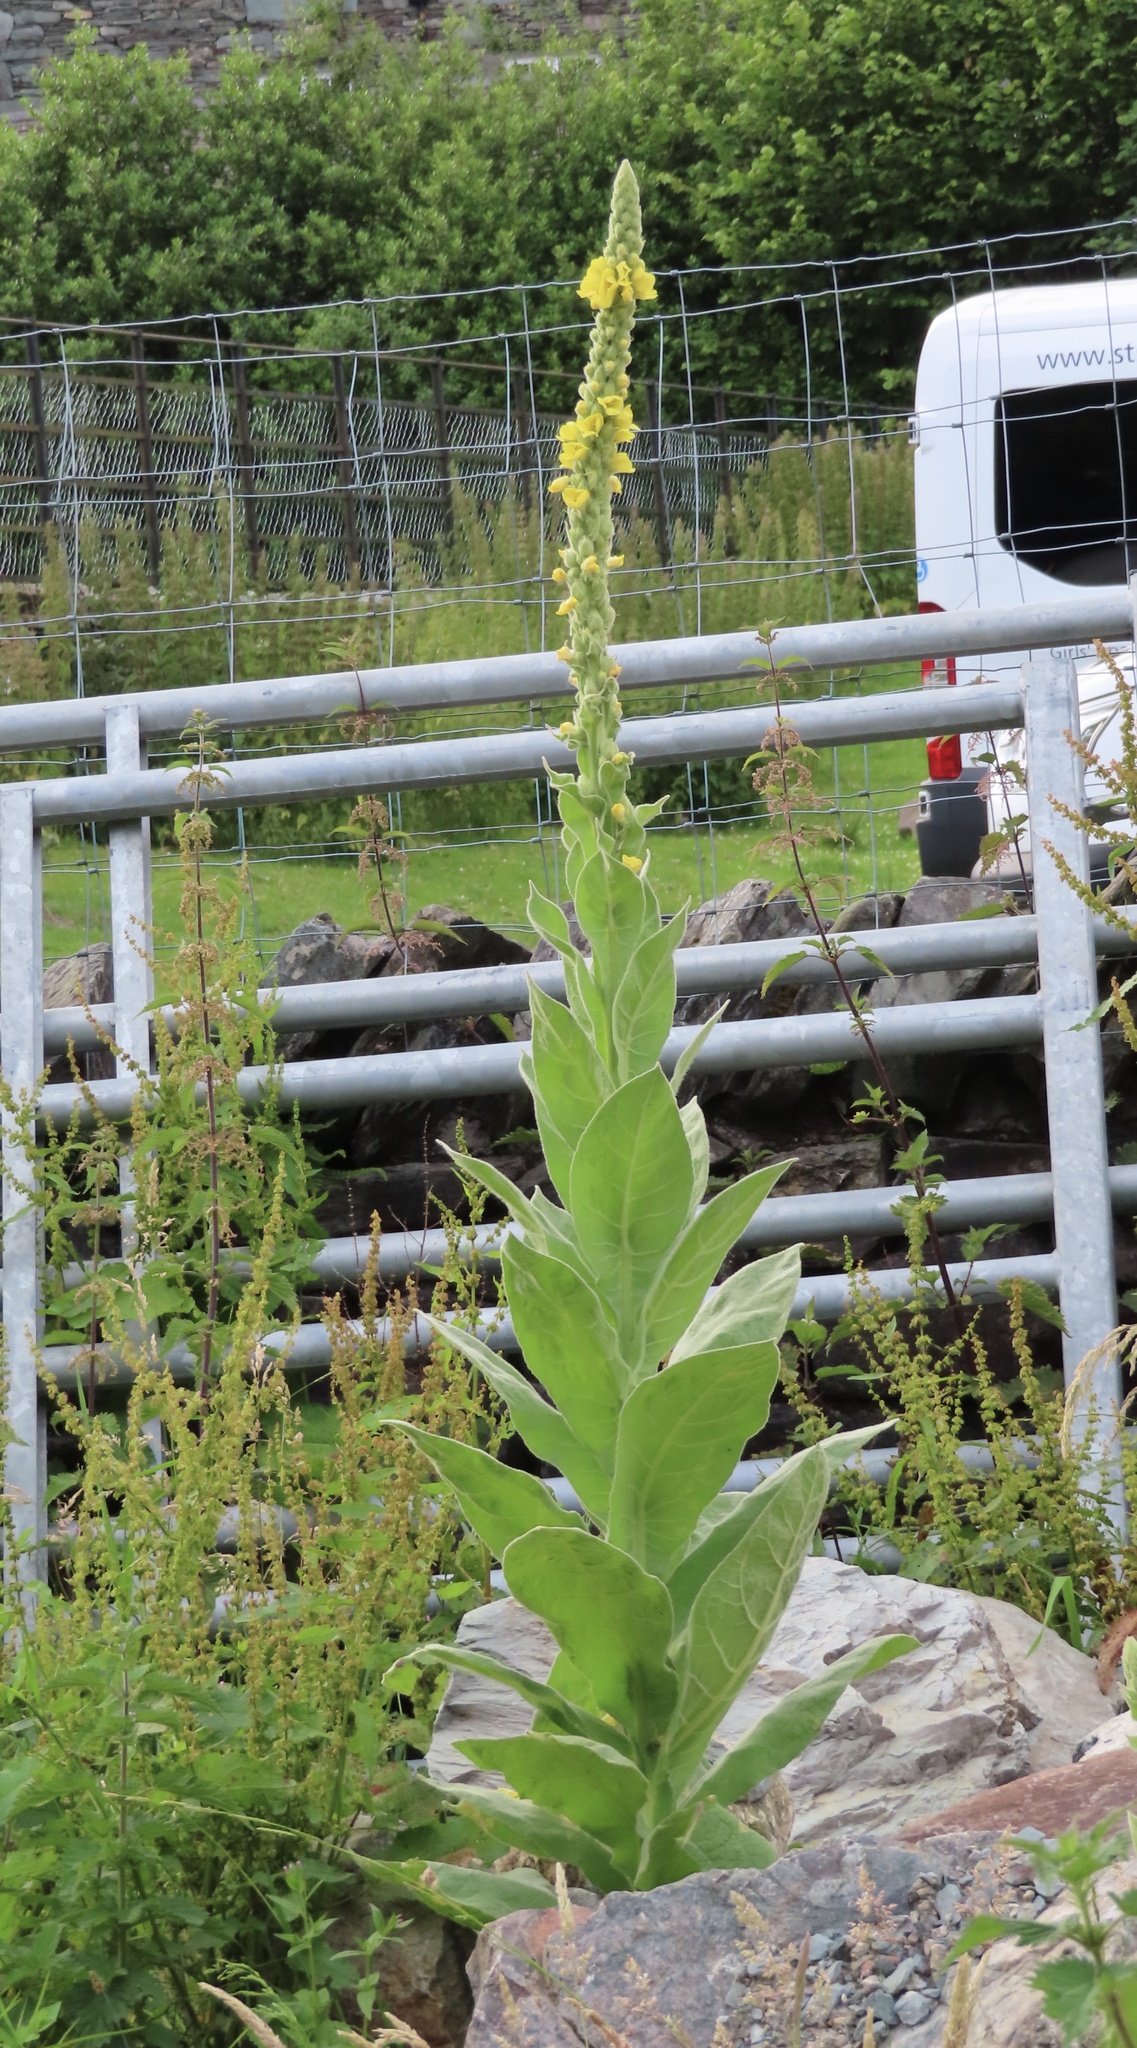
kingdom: Plantae
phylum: Tracheophyta
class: Magnoliopsida
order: Lamiales
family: Scrophulariaceae
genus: Verbascum
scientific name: Verbascum thapsus
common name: Common mullein
